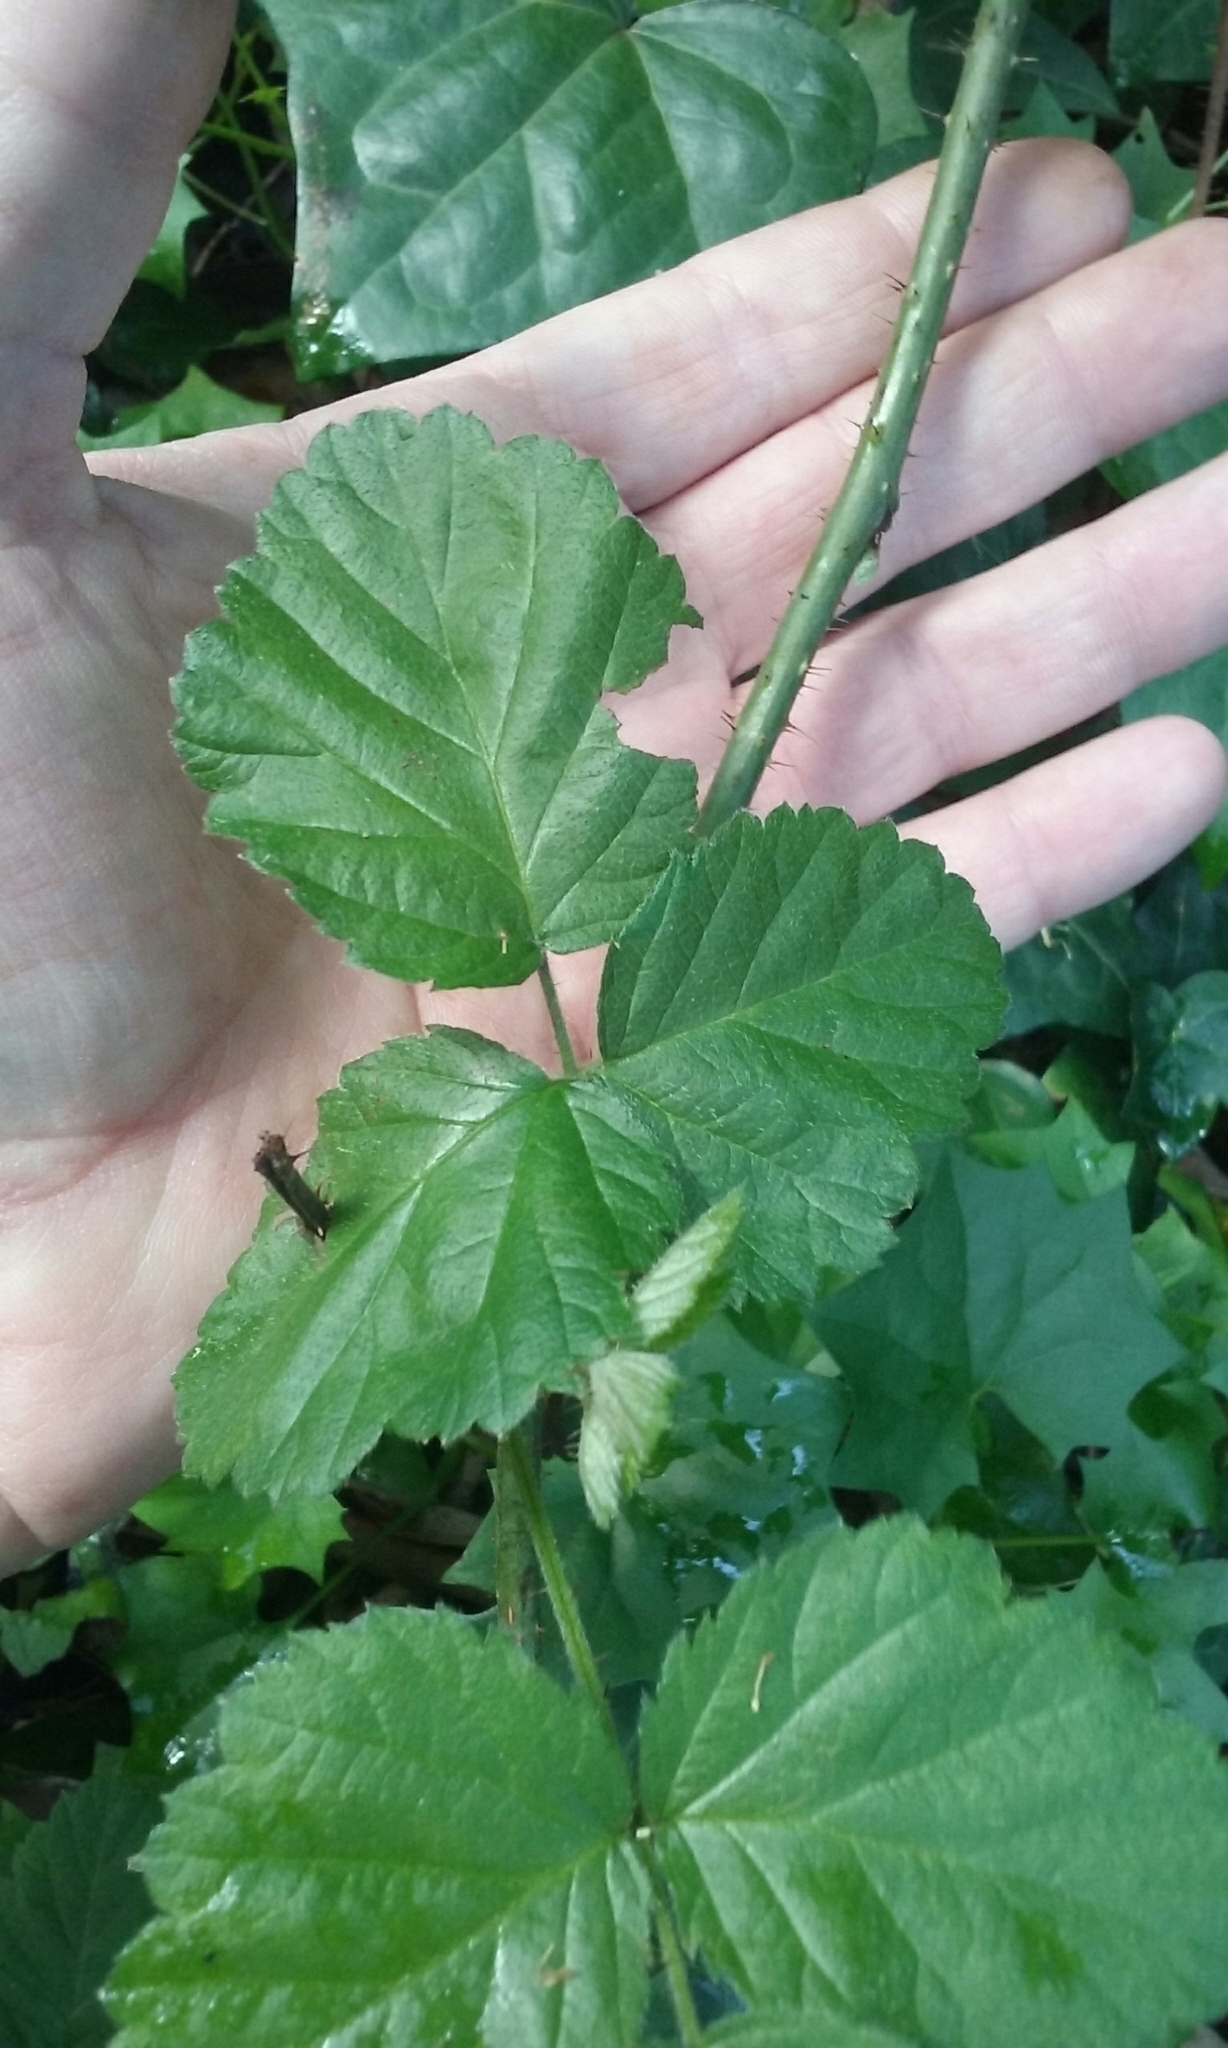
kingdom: Plantae
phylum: Tracheophyta
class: Magnoliopsida
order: Rosales
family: Rosaceae
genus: Rubus
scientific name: Rubus ursinus
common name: Pacific blackberry
